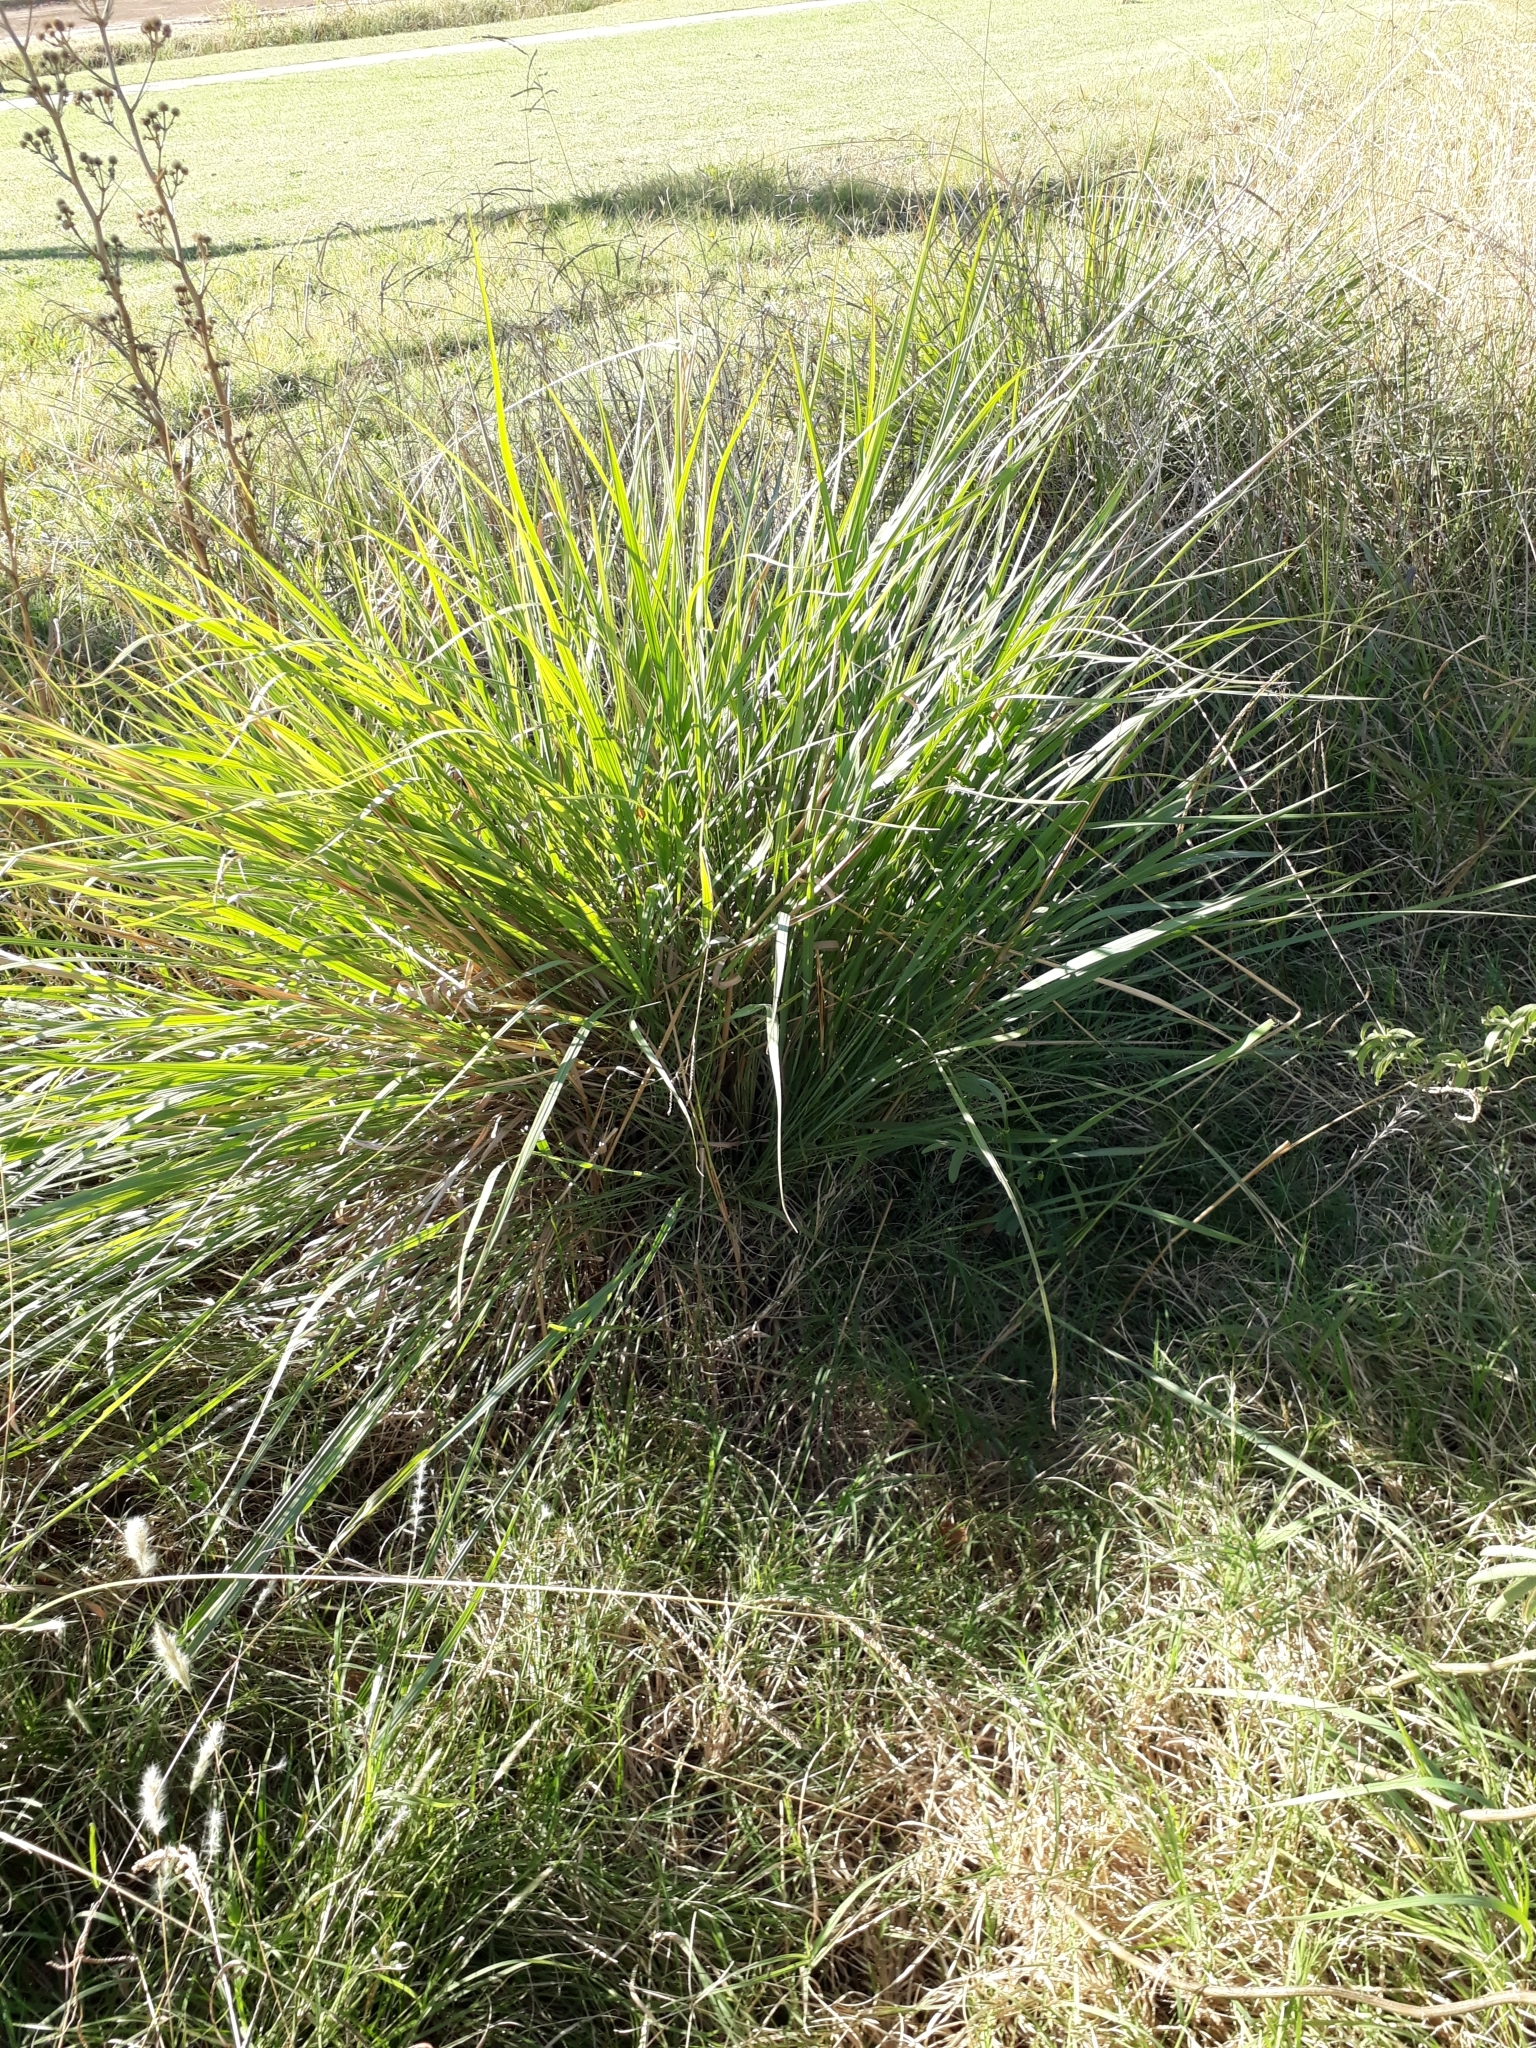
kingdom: Plantae
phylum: Tracheophyta
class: Liliopsida
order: Poales
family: Poaceae
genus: Paspalum
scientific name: Paspalum quadrifarium
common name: Tussock paspalum
